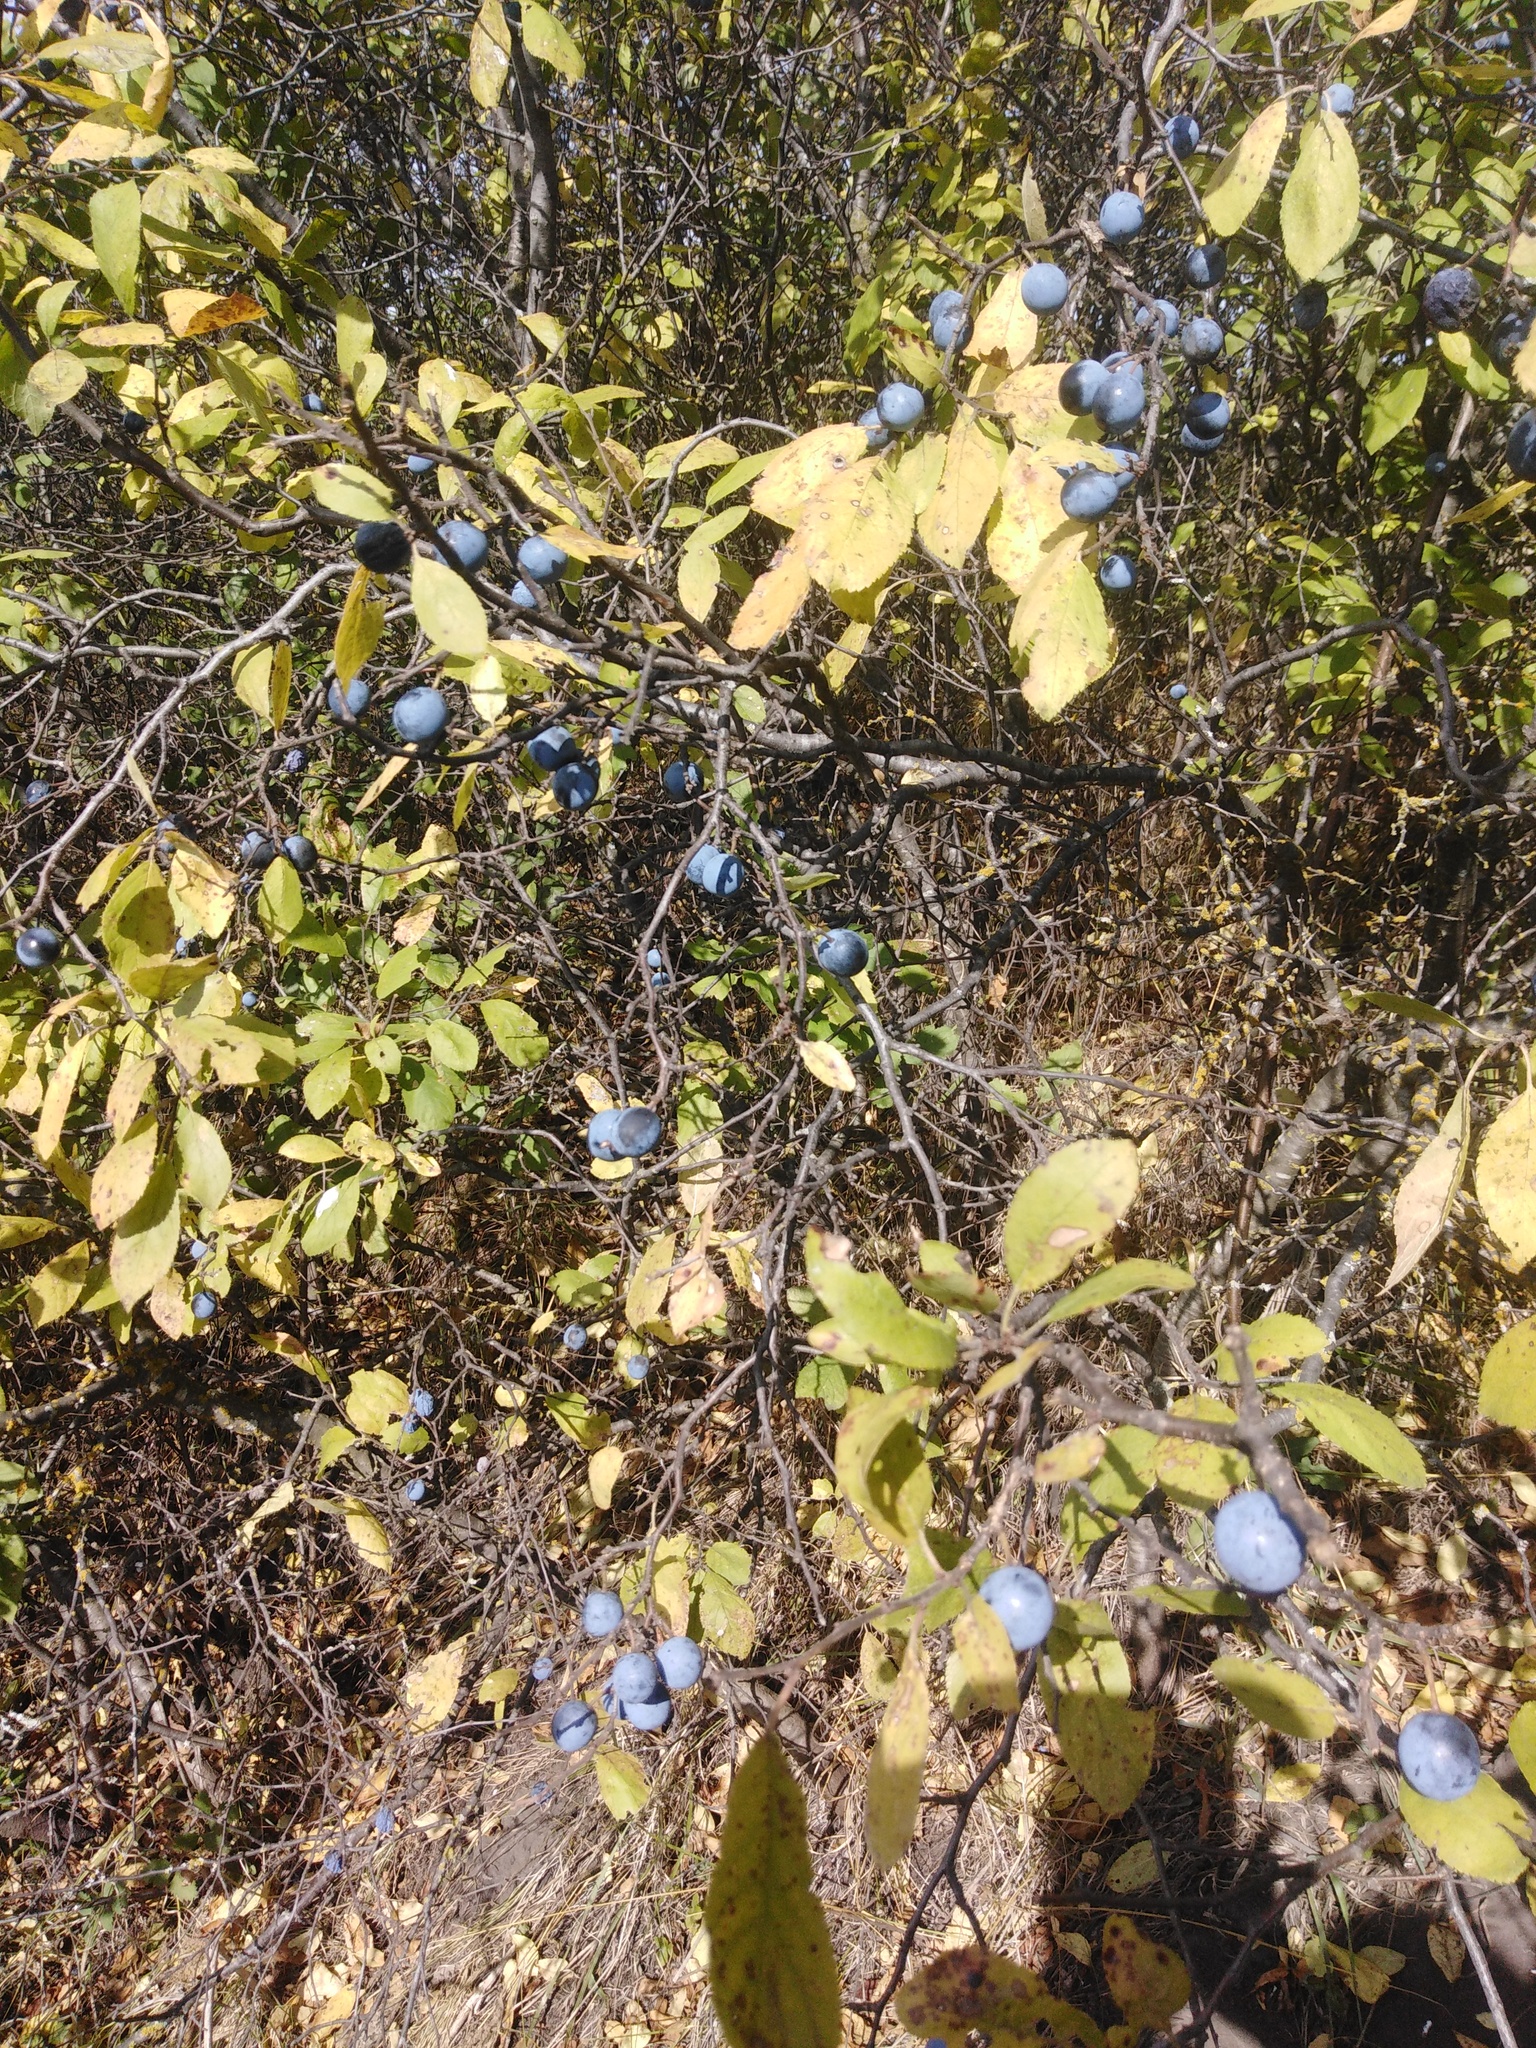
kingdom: Plantae
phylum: Tracheophyta
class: Magnoliopsida
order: Rosales
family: Rosaceae
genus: Prunus
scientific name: Prunus spinosa
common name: Blackthorn
